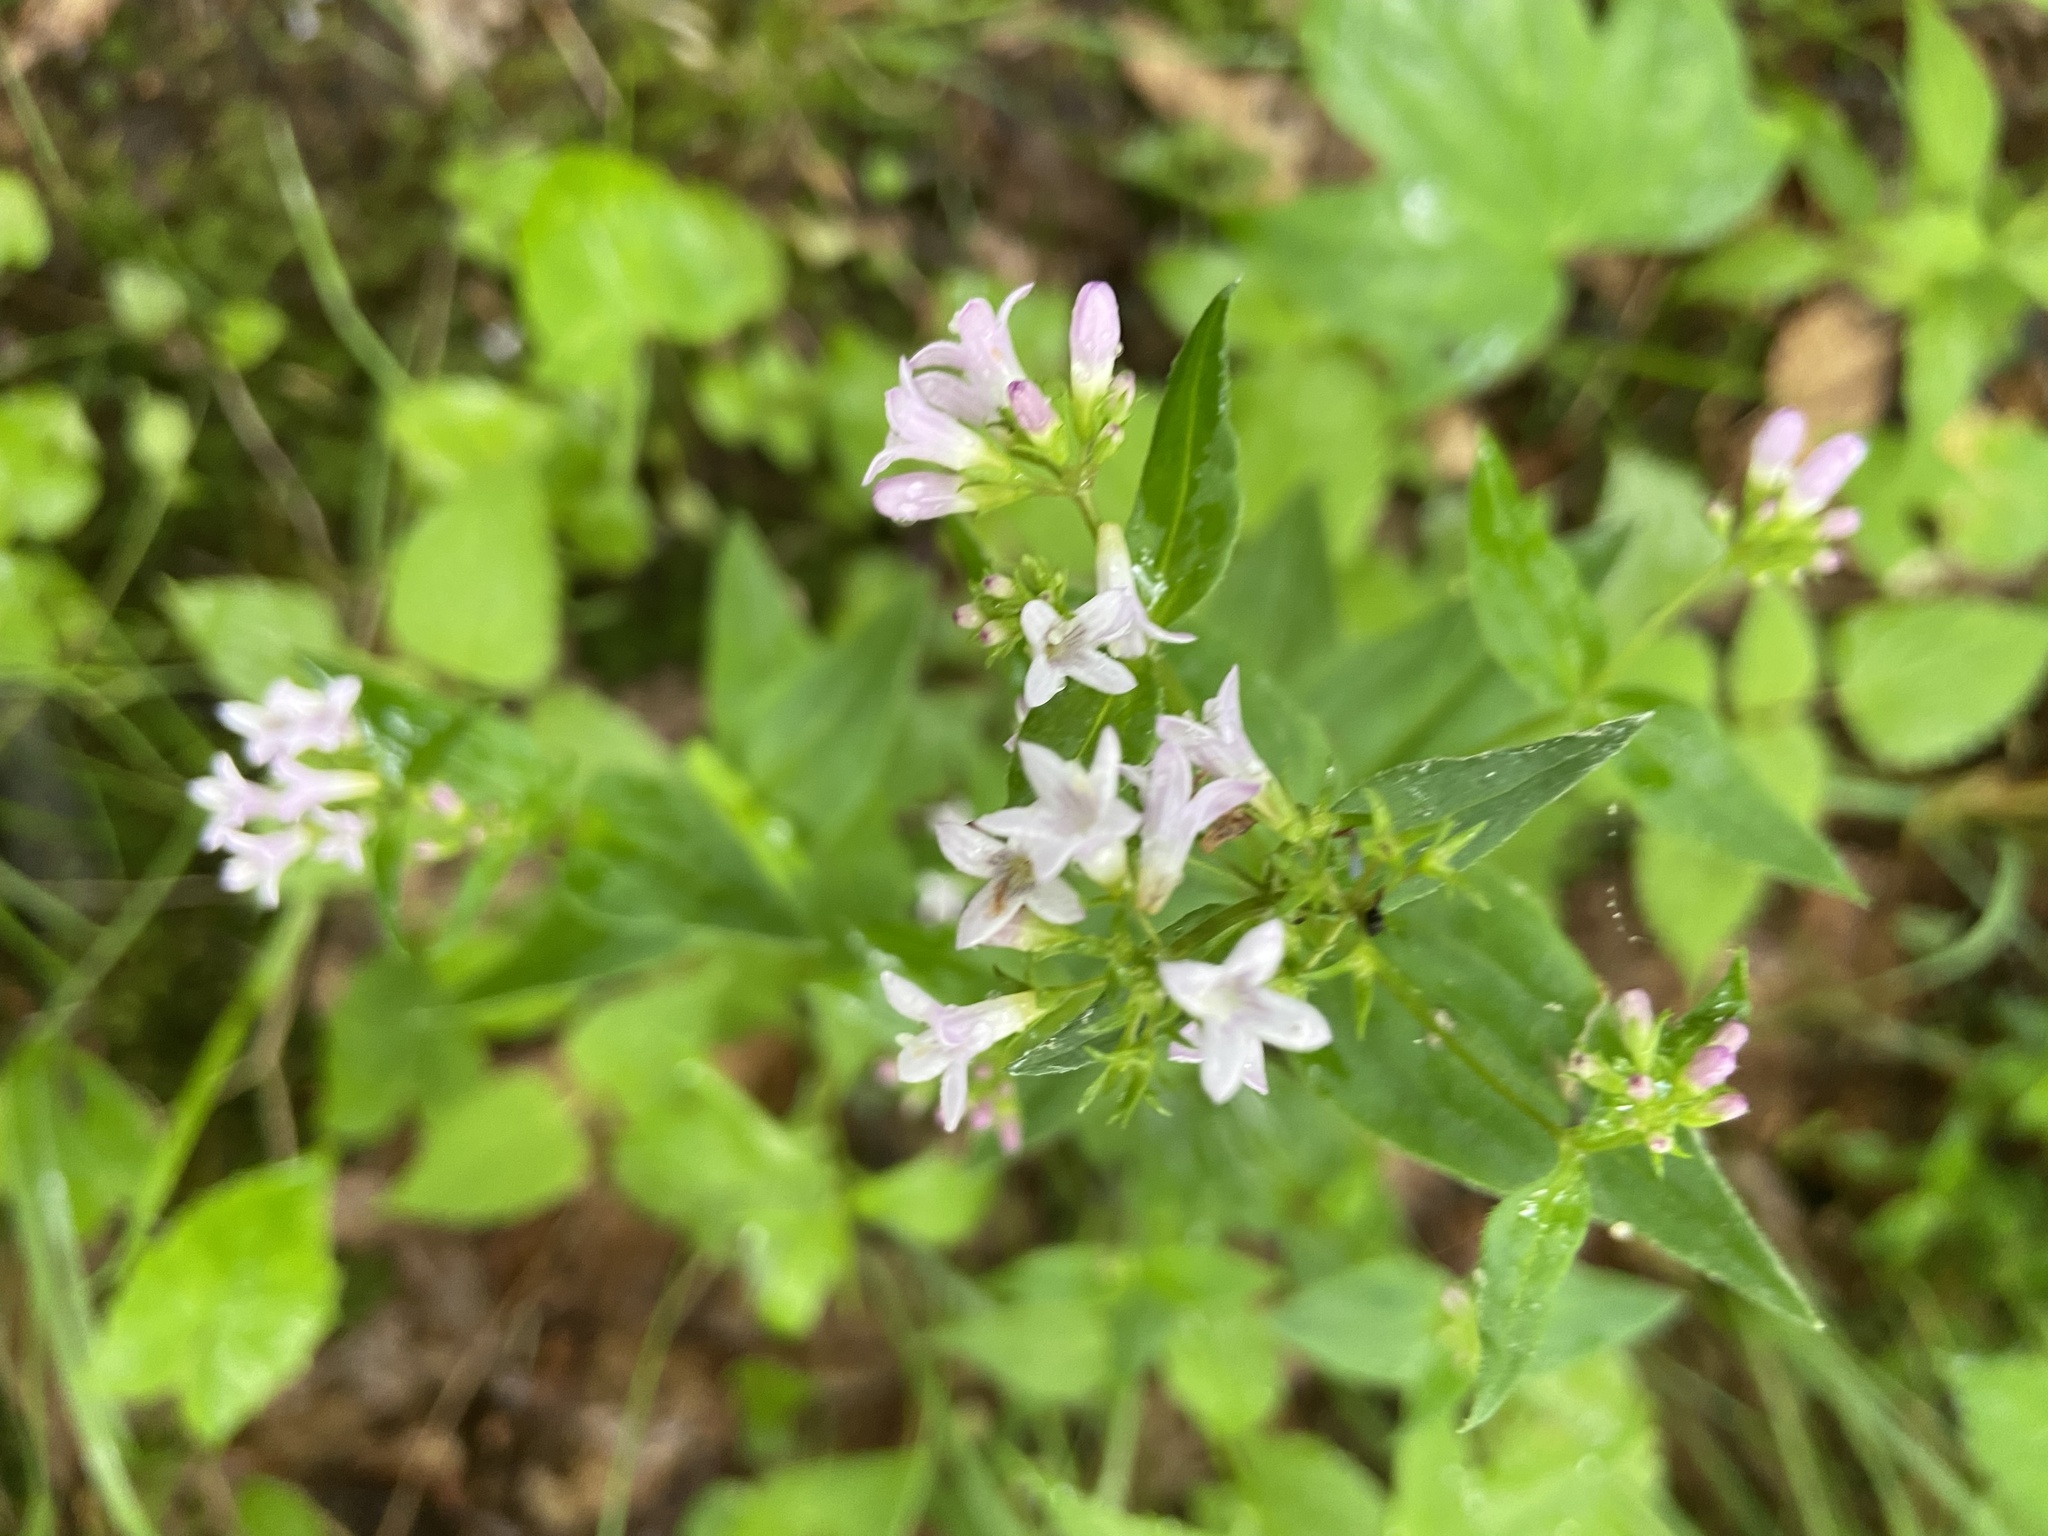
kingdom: Plantae
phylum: Tracheophyta
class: Magnoliopsida
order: Gentianales
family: Rubiaceae
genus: Houstonia
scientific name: Houstonia purpurea
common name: Summer bluet
